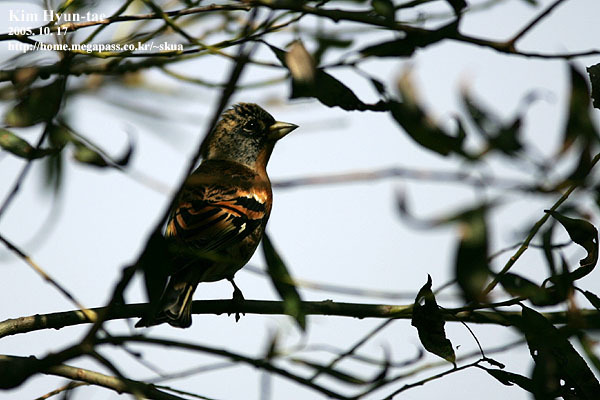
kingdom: Animalia
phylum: Chordata
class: Aves
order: Passeriformes
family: Fringillidae
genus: Fringilla
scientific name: Fringilla montifringilla
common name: Brambling
